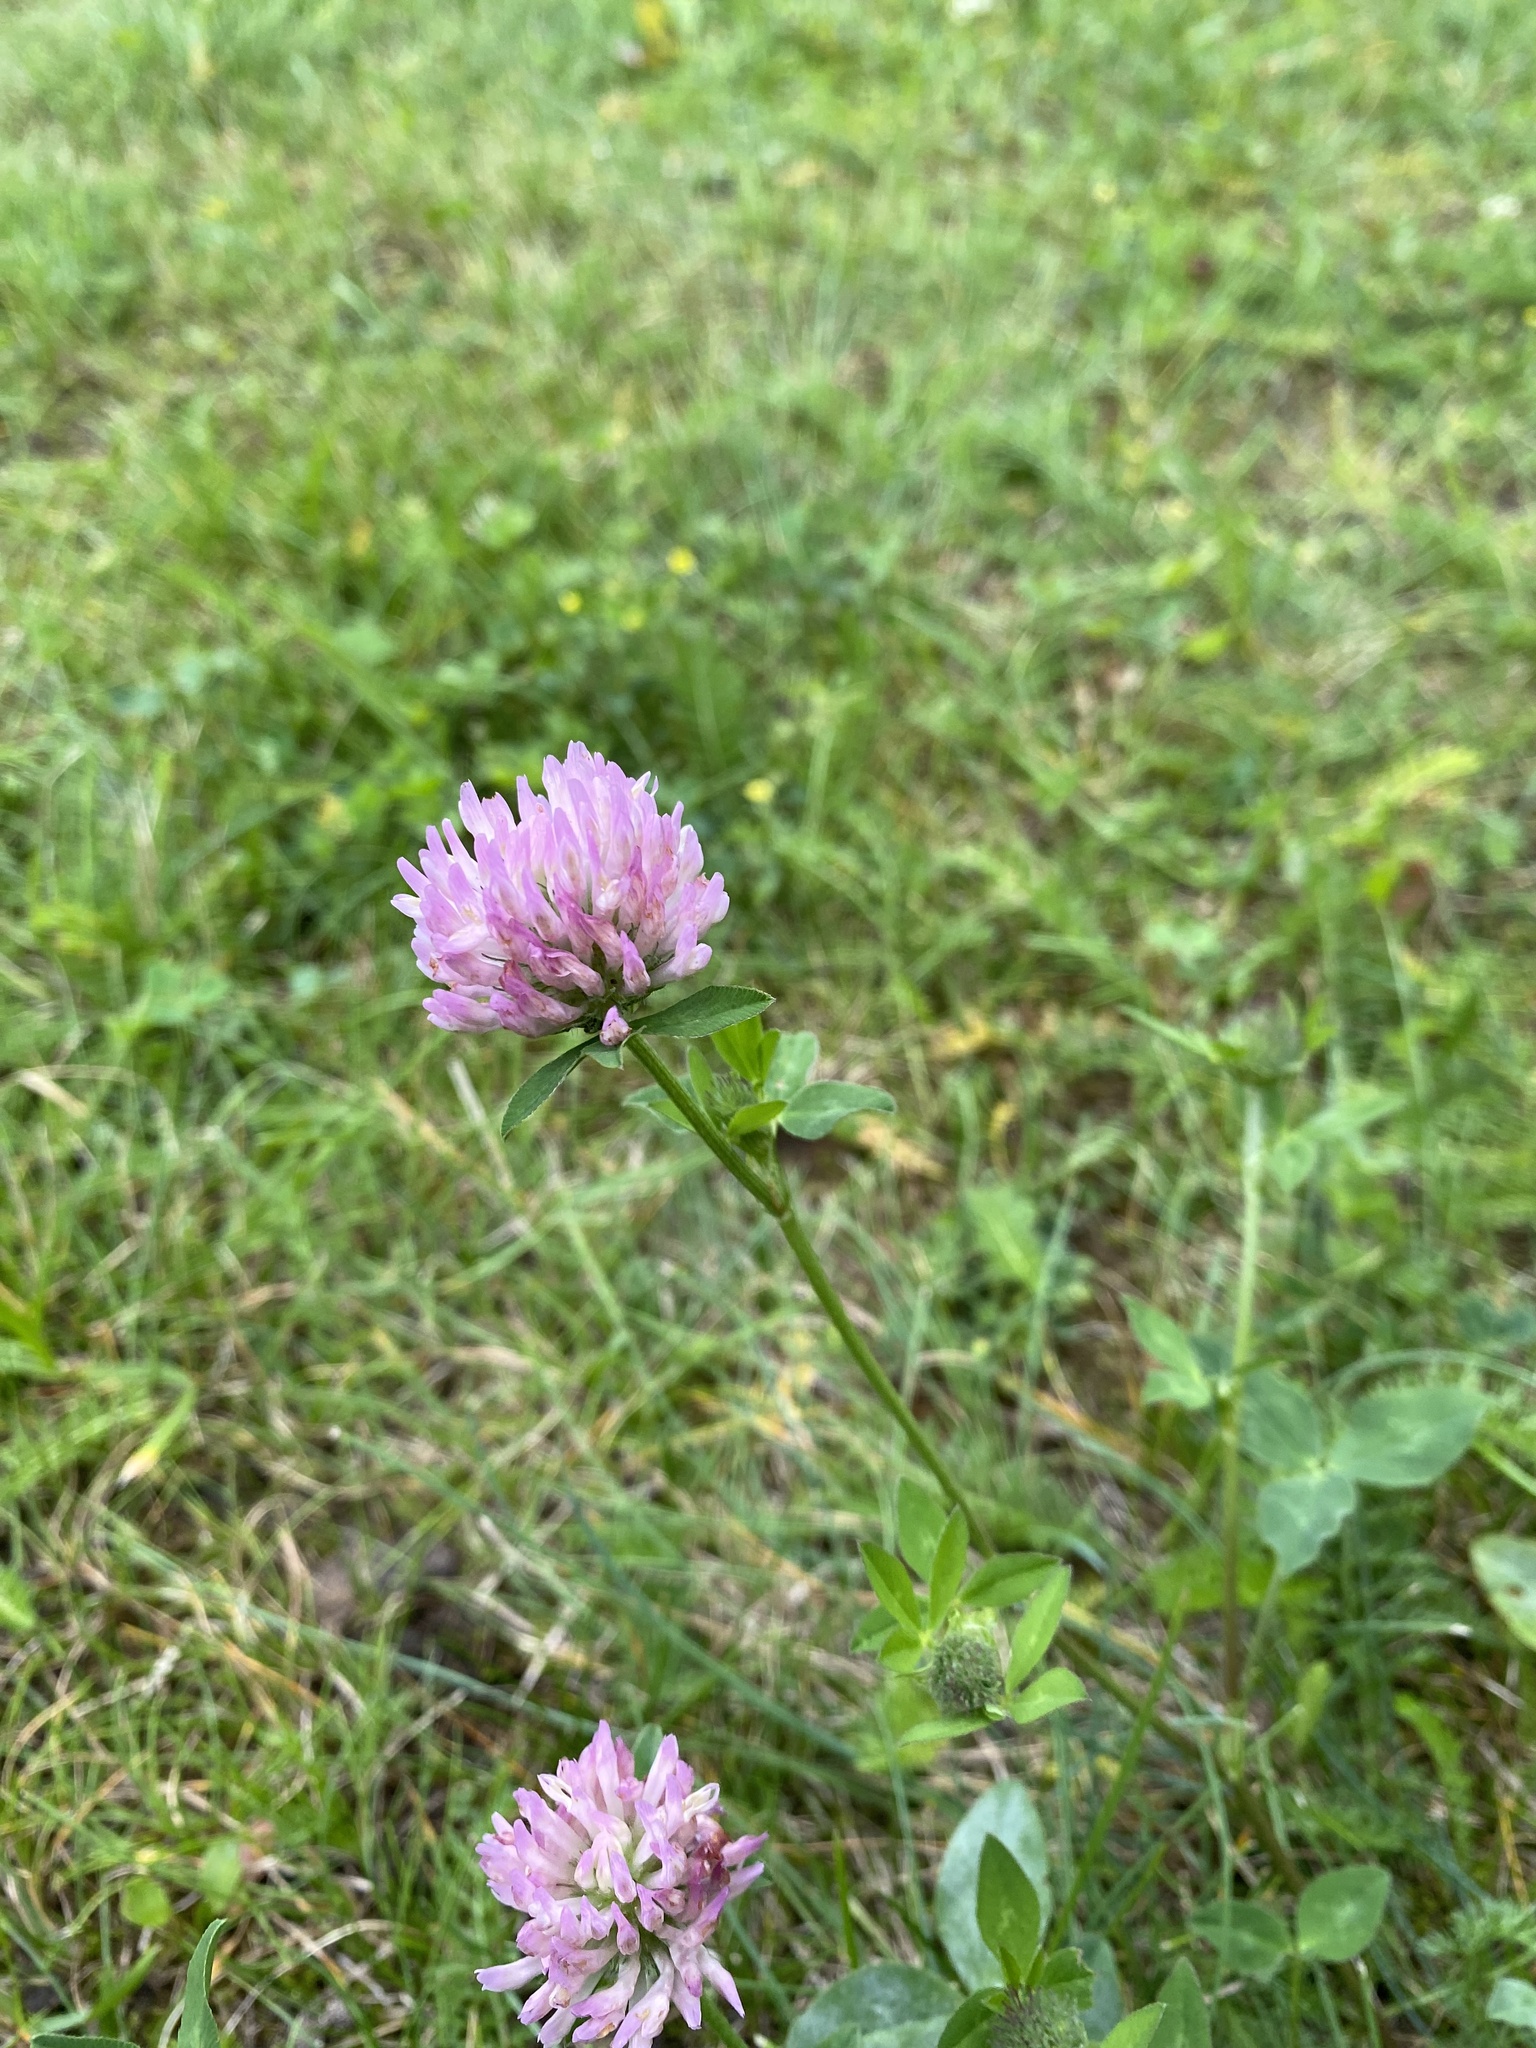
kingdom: Plantae
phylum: Tracheophyta
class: Magnoliopsida
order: Fabales
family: Fabaceae
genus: Trifolium
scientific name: Trifolium pratense
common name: Red clover
